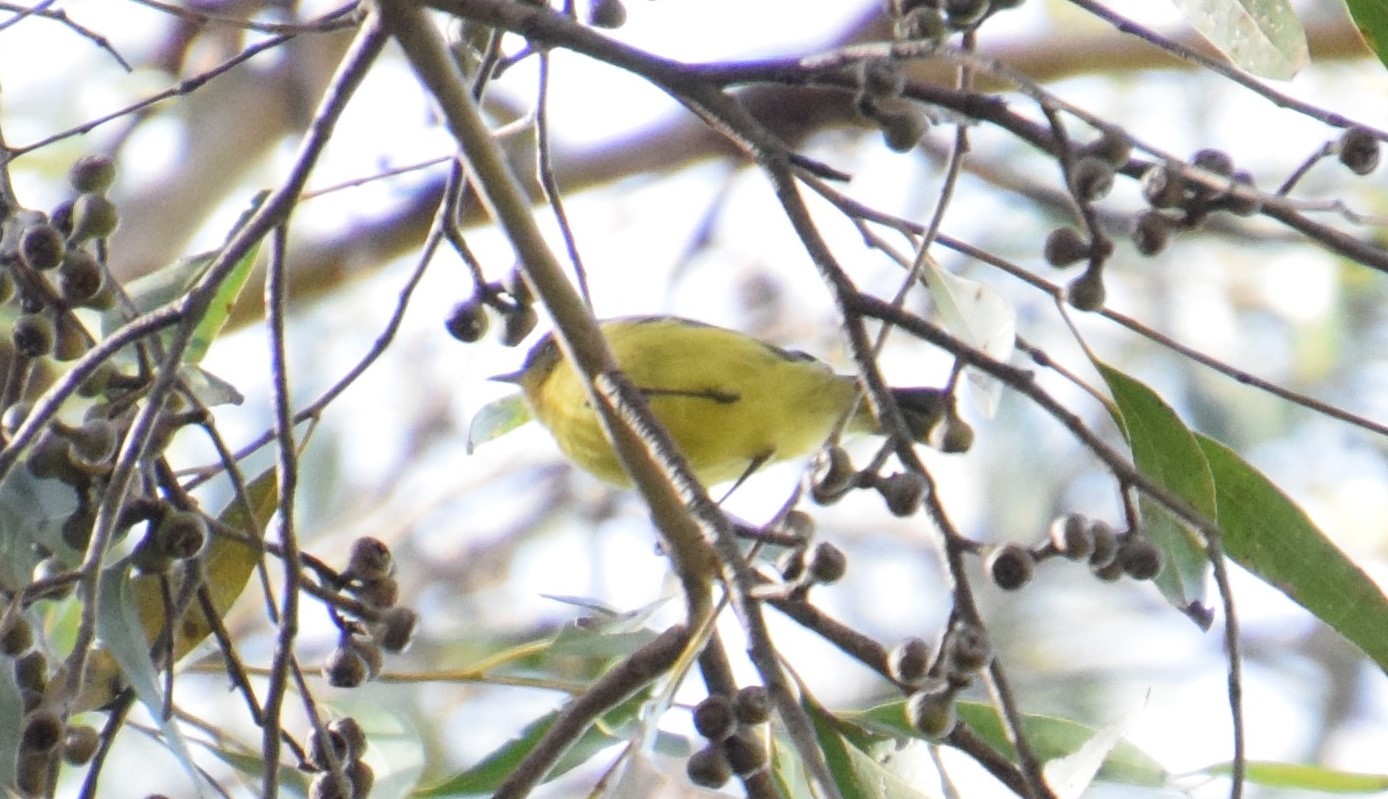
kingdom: Animalia
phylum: Chordata
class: Aves
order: Passeriformes
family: Acanthizidae
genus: Acanthiza
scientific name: Acanthiza nana
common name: Yellow thornbill
